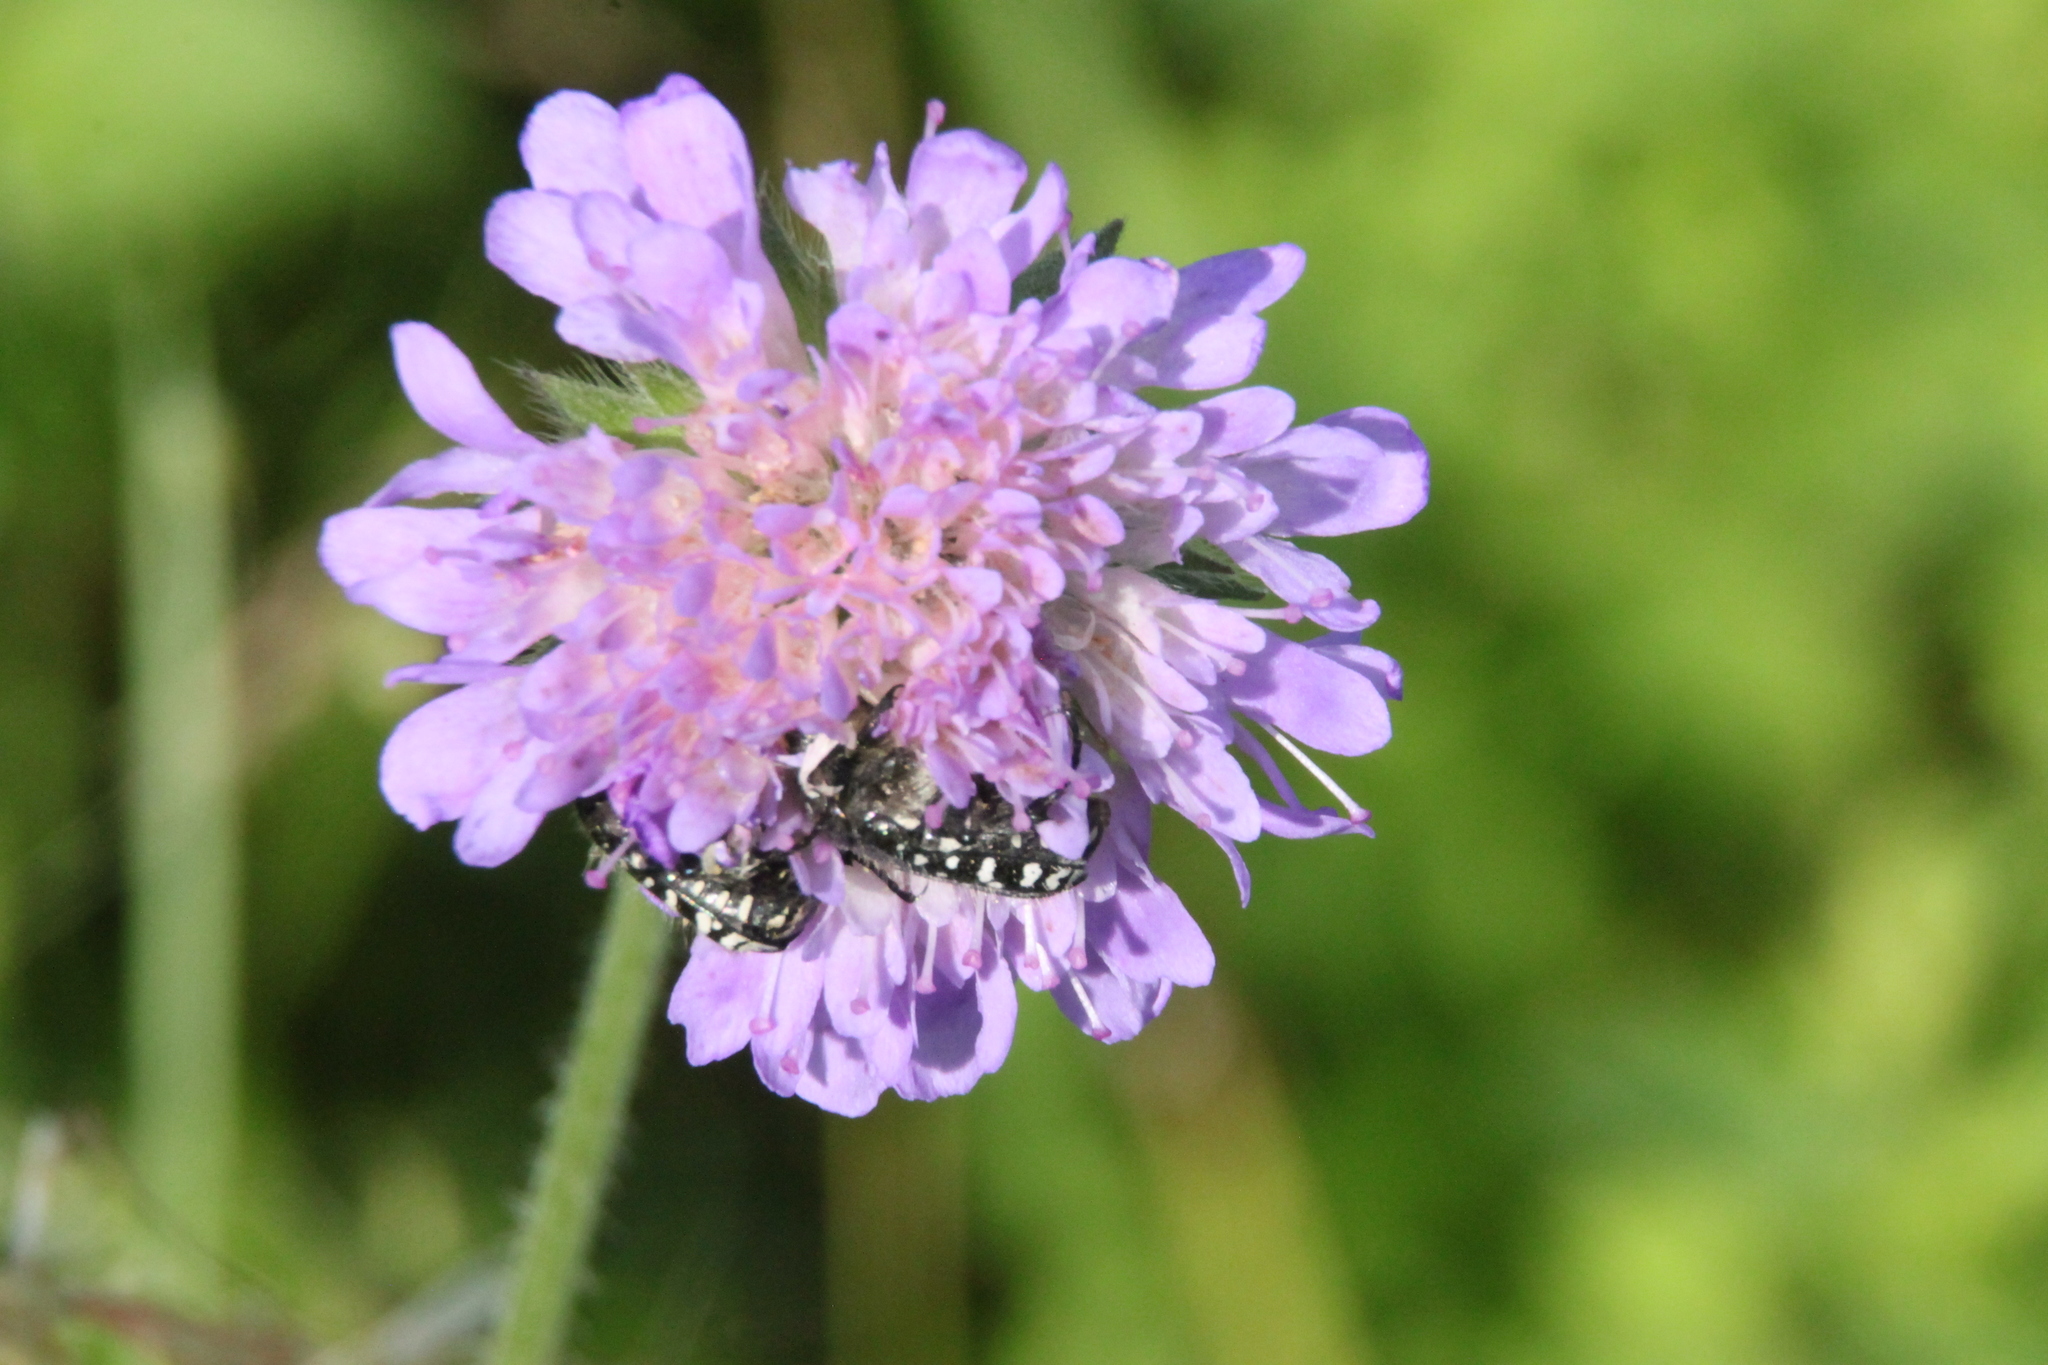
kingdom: Plantae
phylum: Tracheophyta
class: Magnoliopsida
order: Dipsacales
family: Caprifoliaceae
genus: Knautia
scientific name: Knautia arvensis
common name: Field scabiosa
